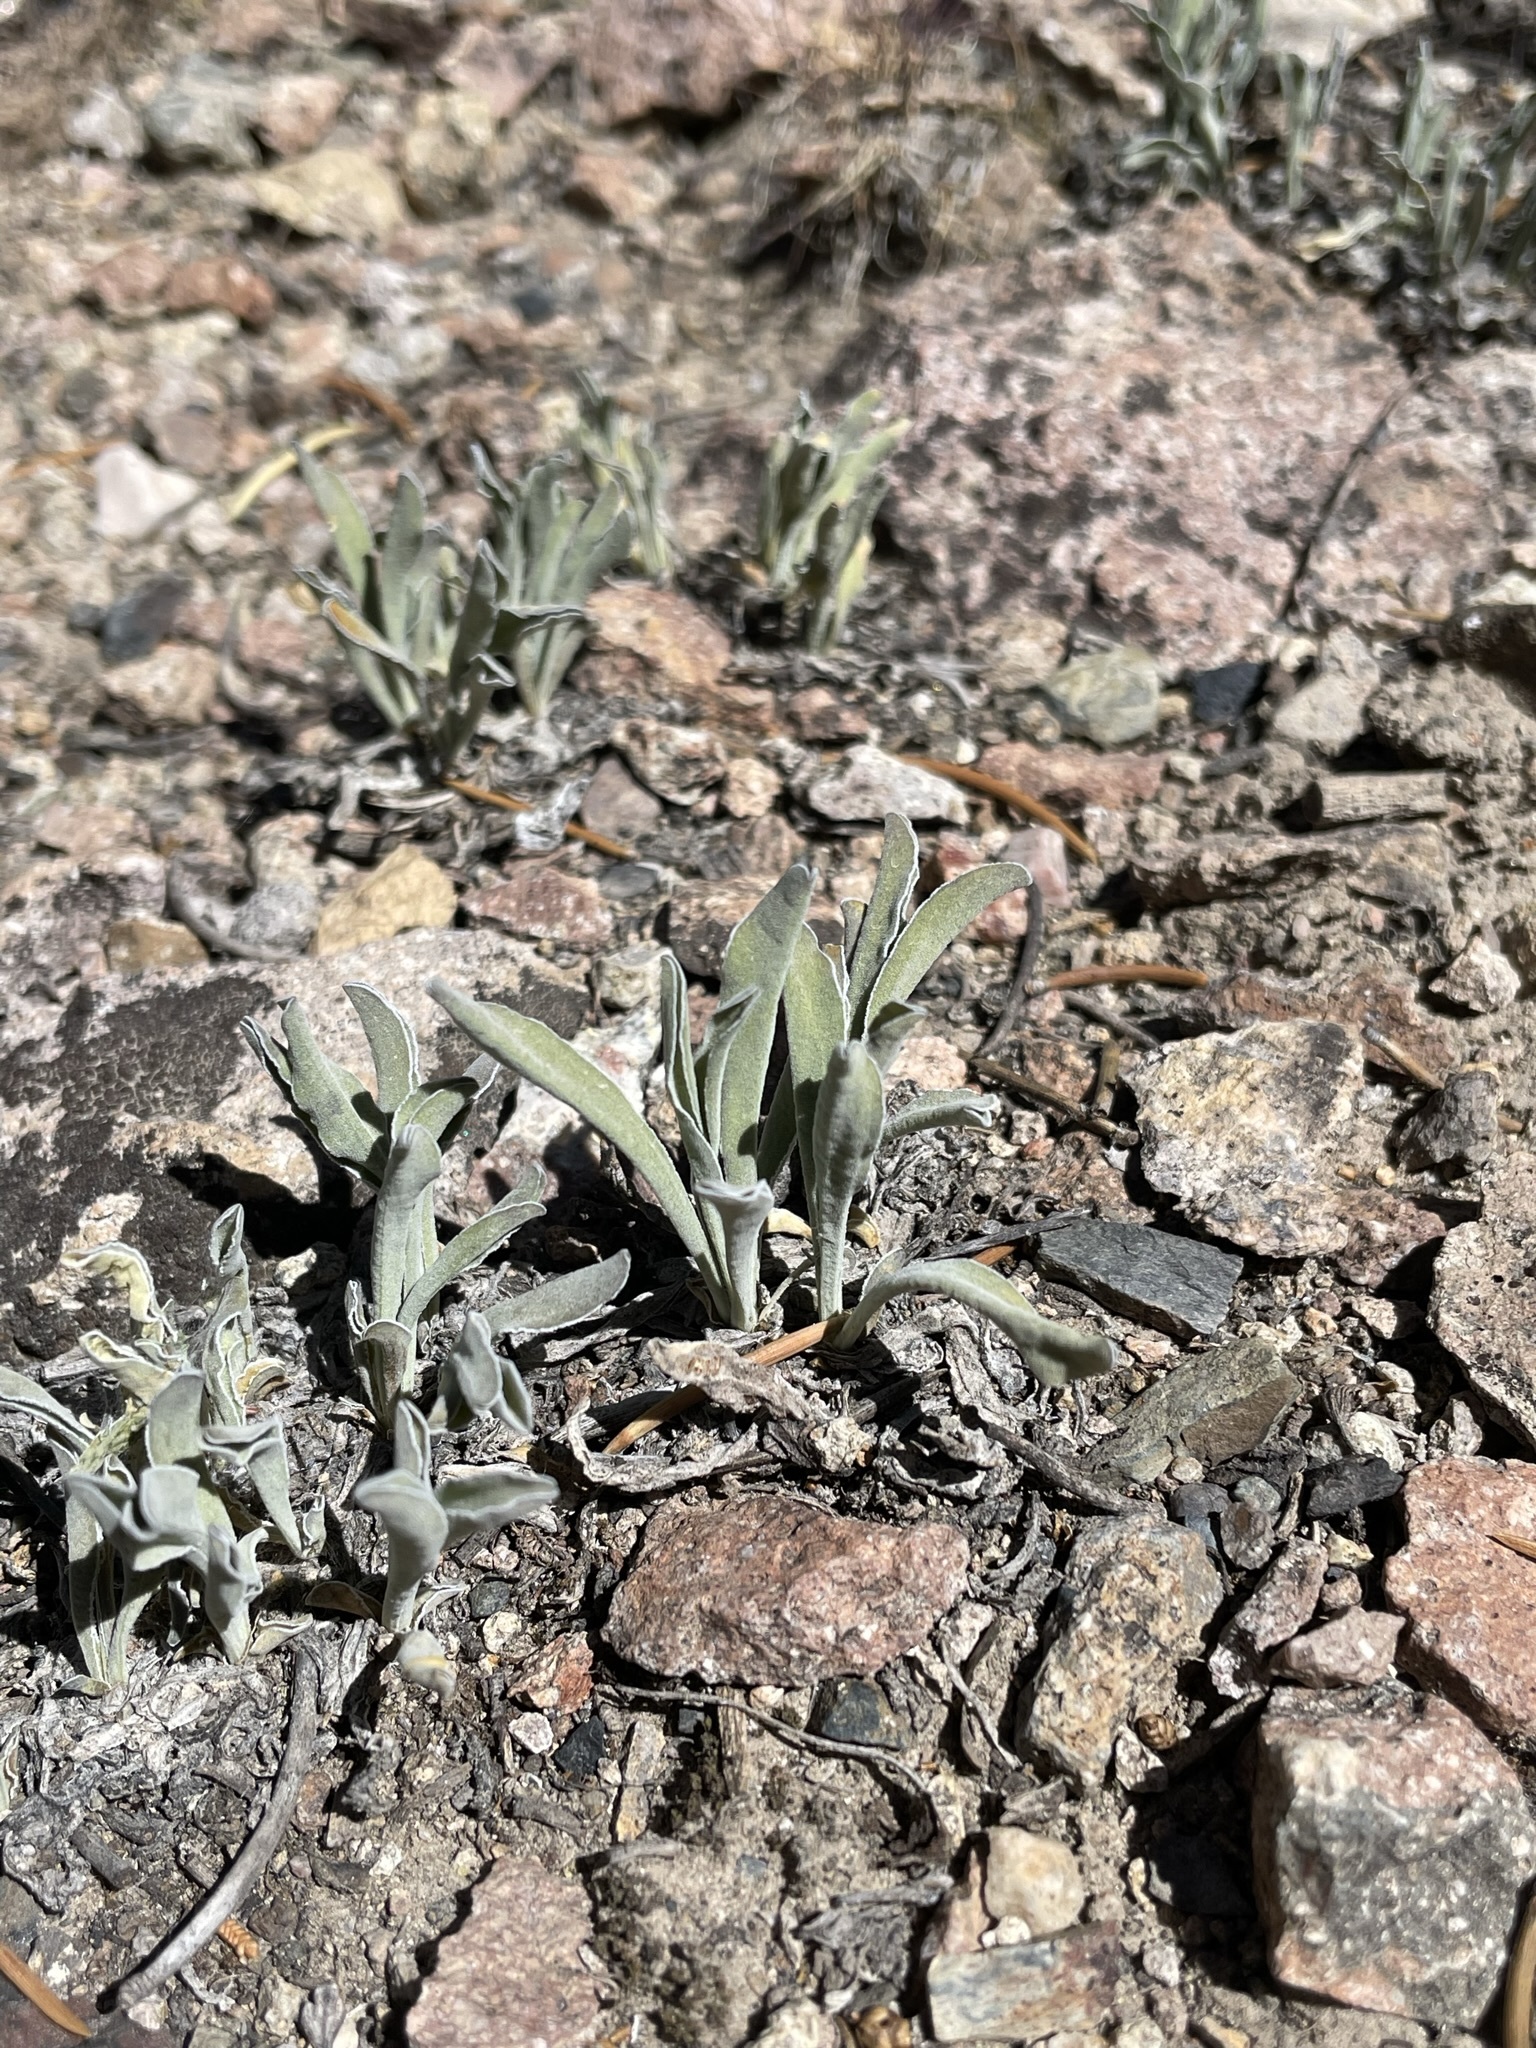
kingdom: Plantae
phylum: Tracheophyta
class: Magnoliopsida
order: Gentianales
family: Gentianaceae
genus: Frasera
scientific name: Frasera albicaulis
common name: Cusick's frasera
